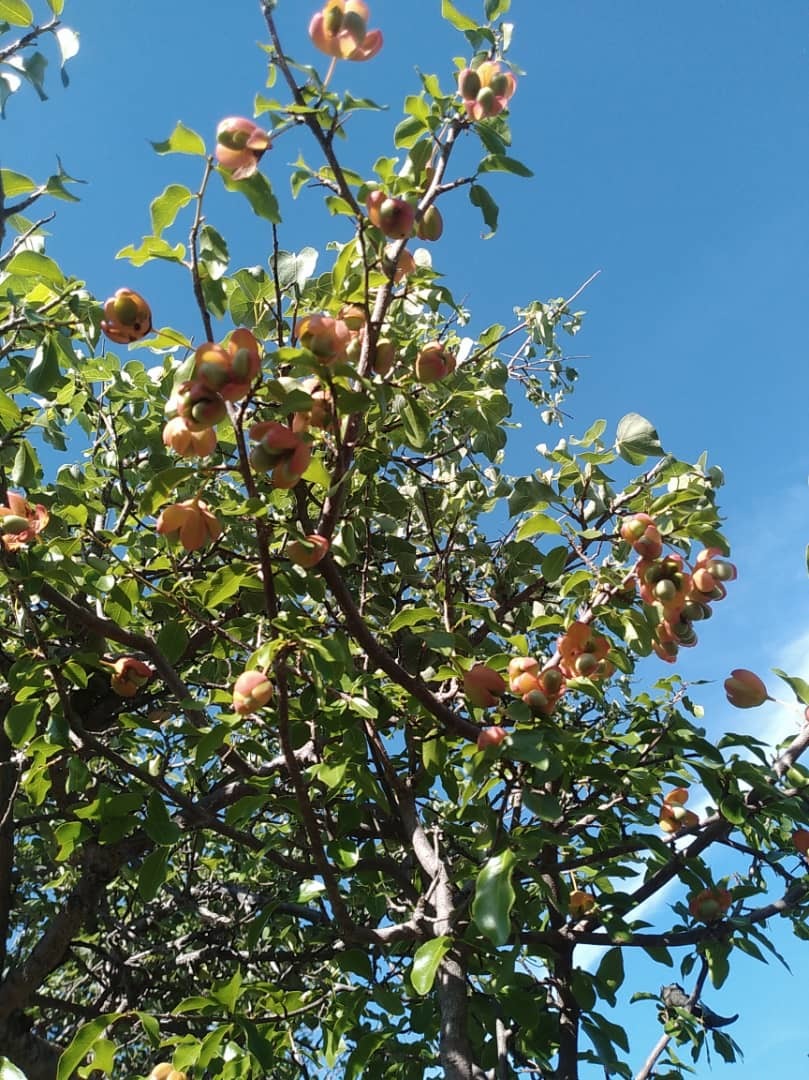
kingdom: Plantae
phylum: Tracheophyta
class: Magnoliopsida
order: Malpighiales
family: Ochnaceae
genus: Ochna
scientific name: Ochna inermis
